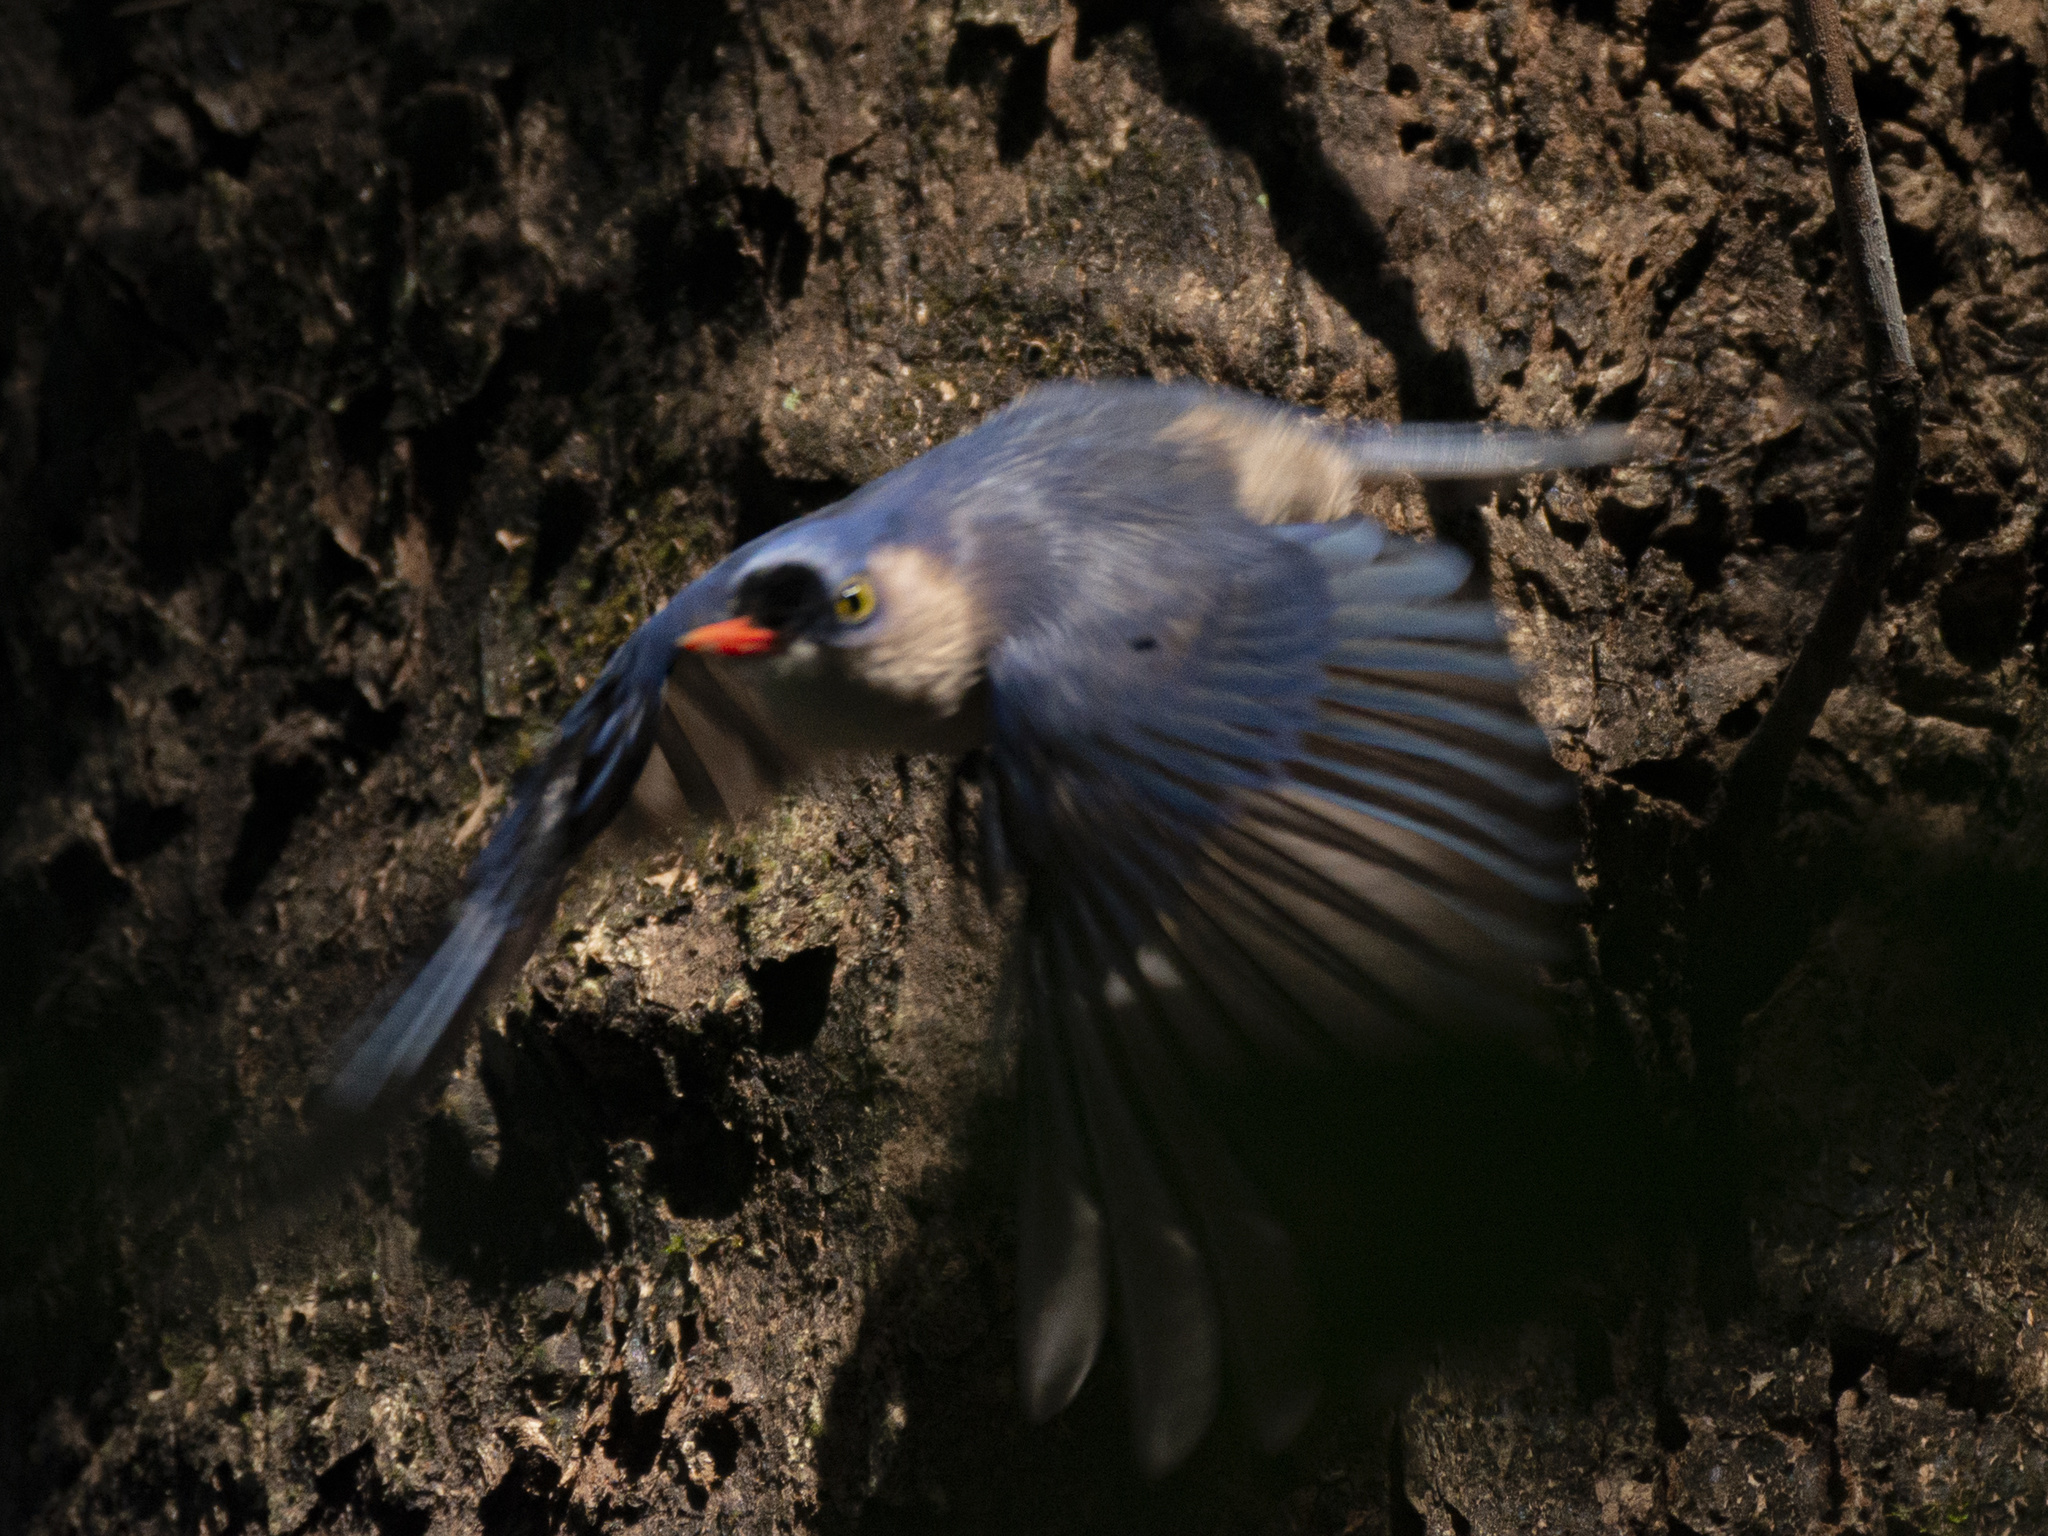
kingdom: Animalia
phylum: Chordata
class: Aves
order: Passeriformes
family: Sittidae
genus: Sitta
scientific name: Sitta frontalis
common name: Velvet-fronted nuthatch
